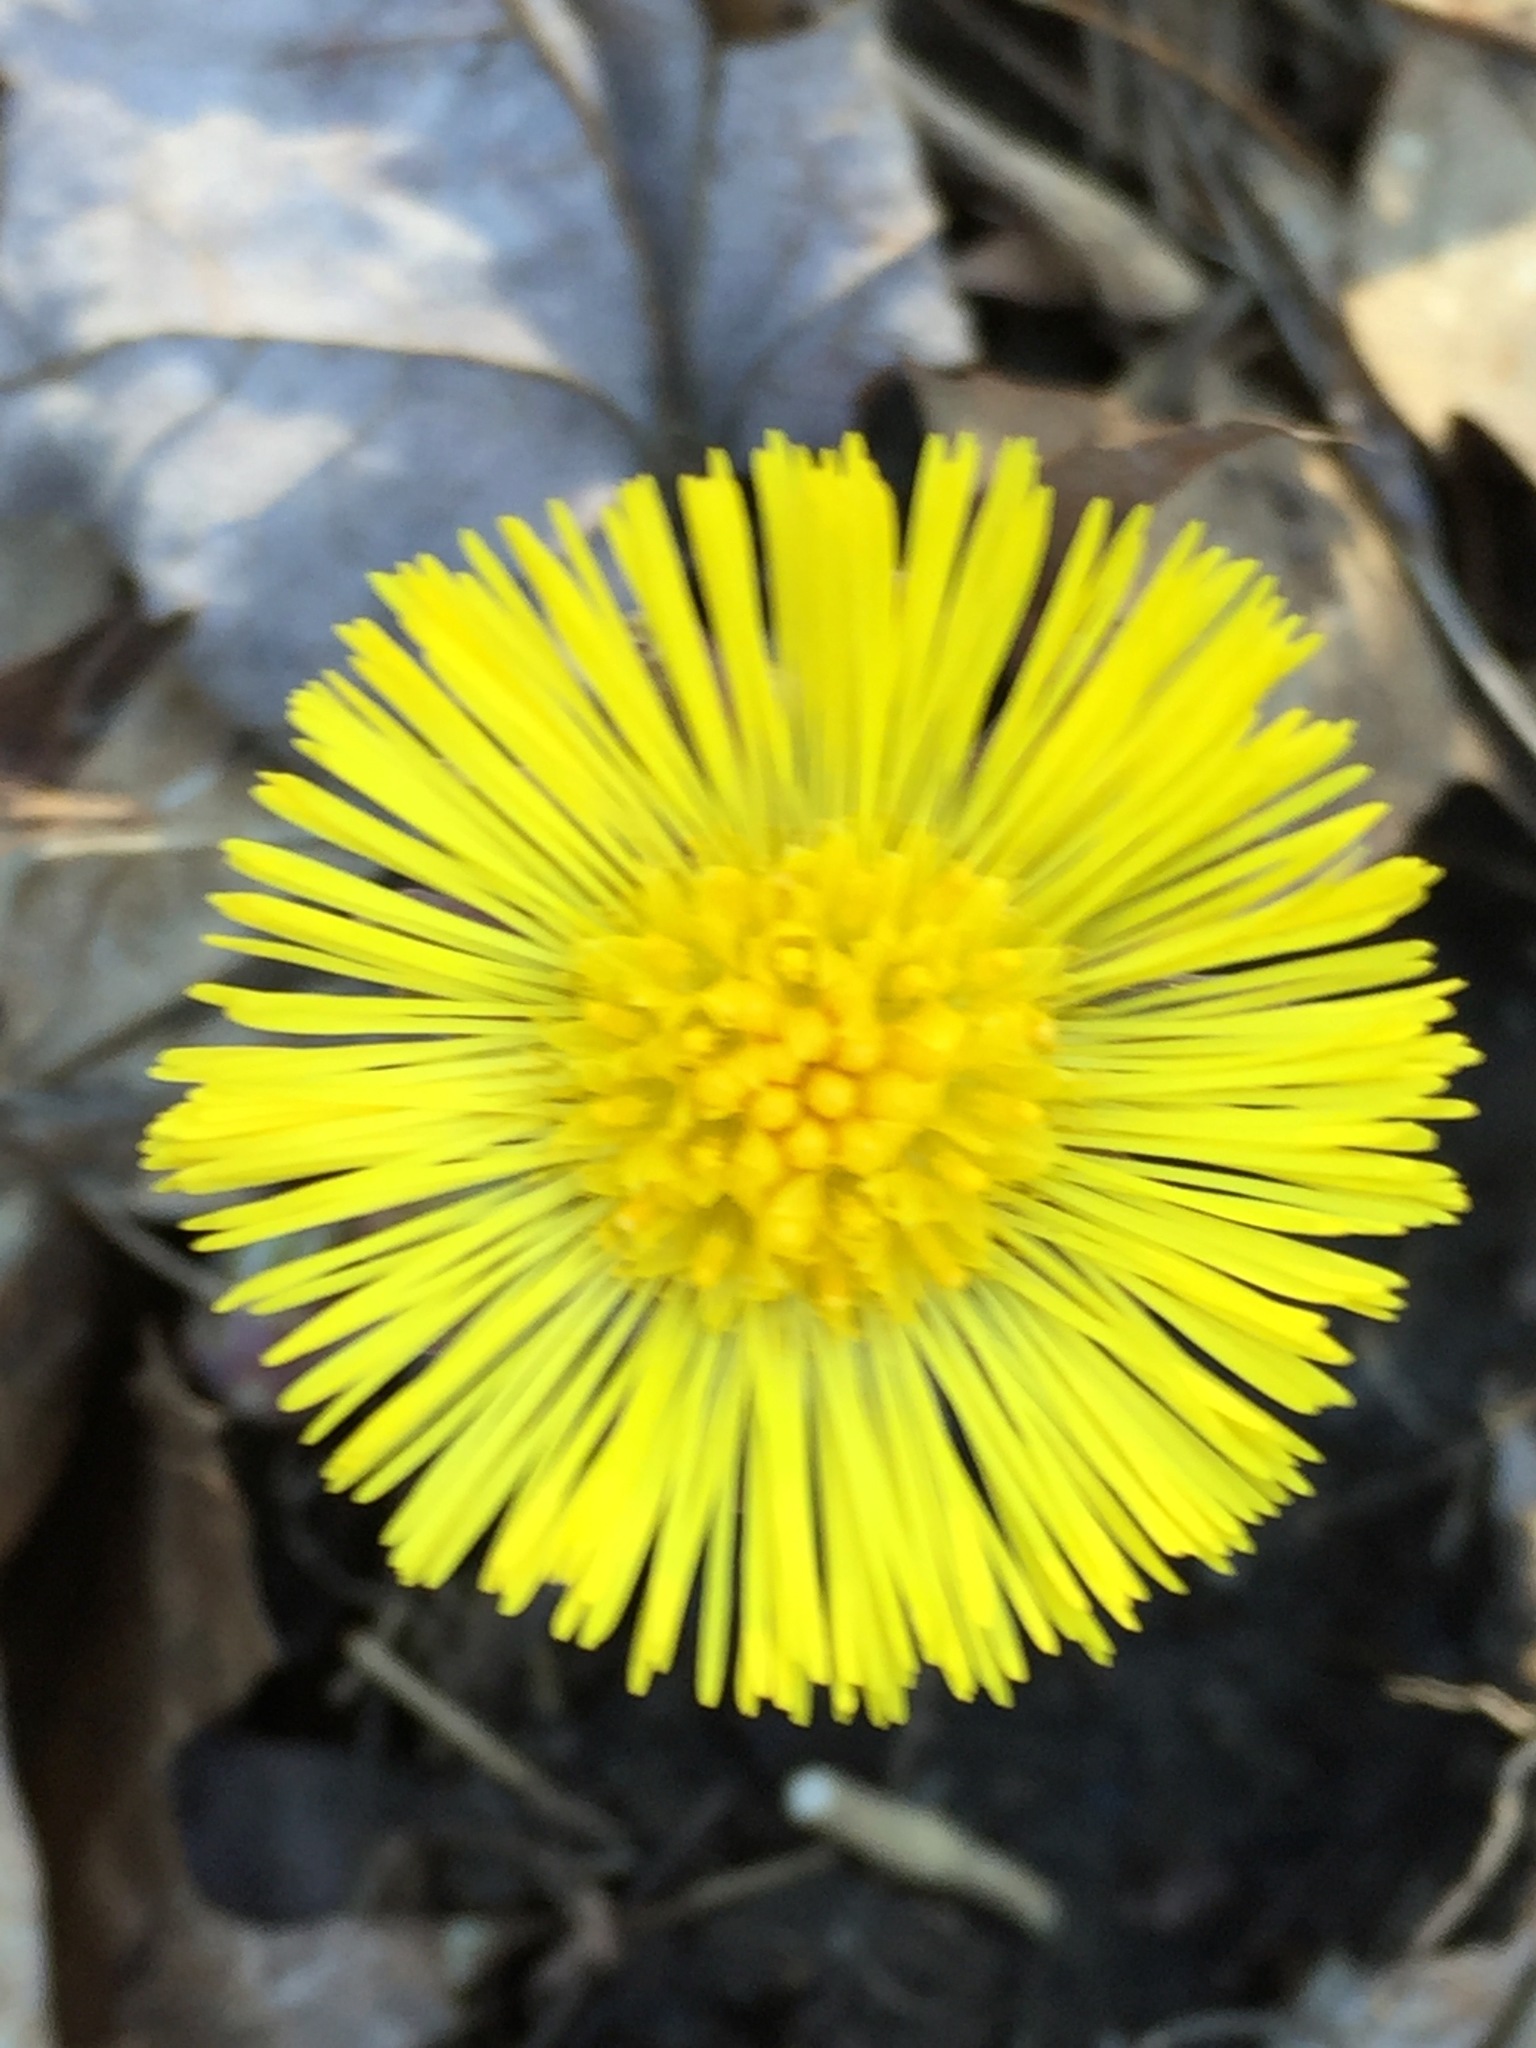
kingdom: Plantae
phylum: Tracheophyta
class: Magnoliopsida
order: Asterales
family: Asteraceae
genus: Tussilago
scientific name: Tussilago farfara
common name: Coltsfoot
